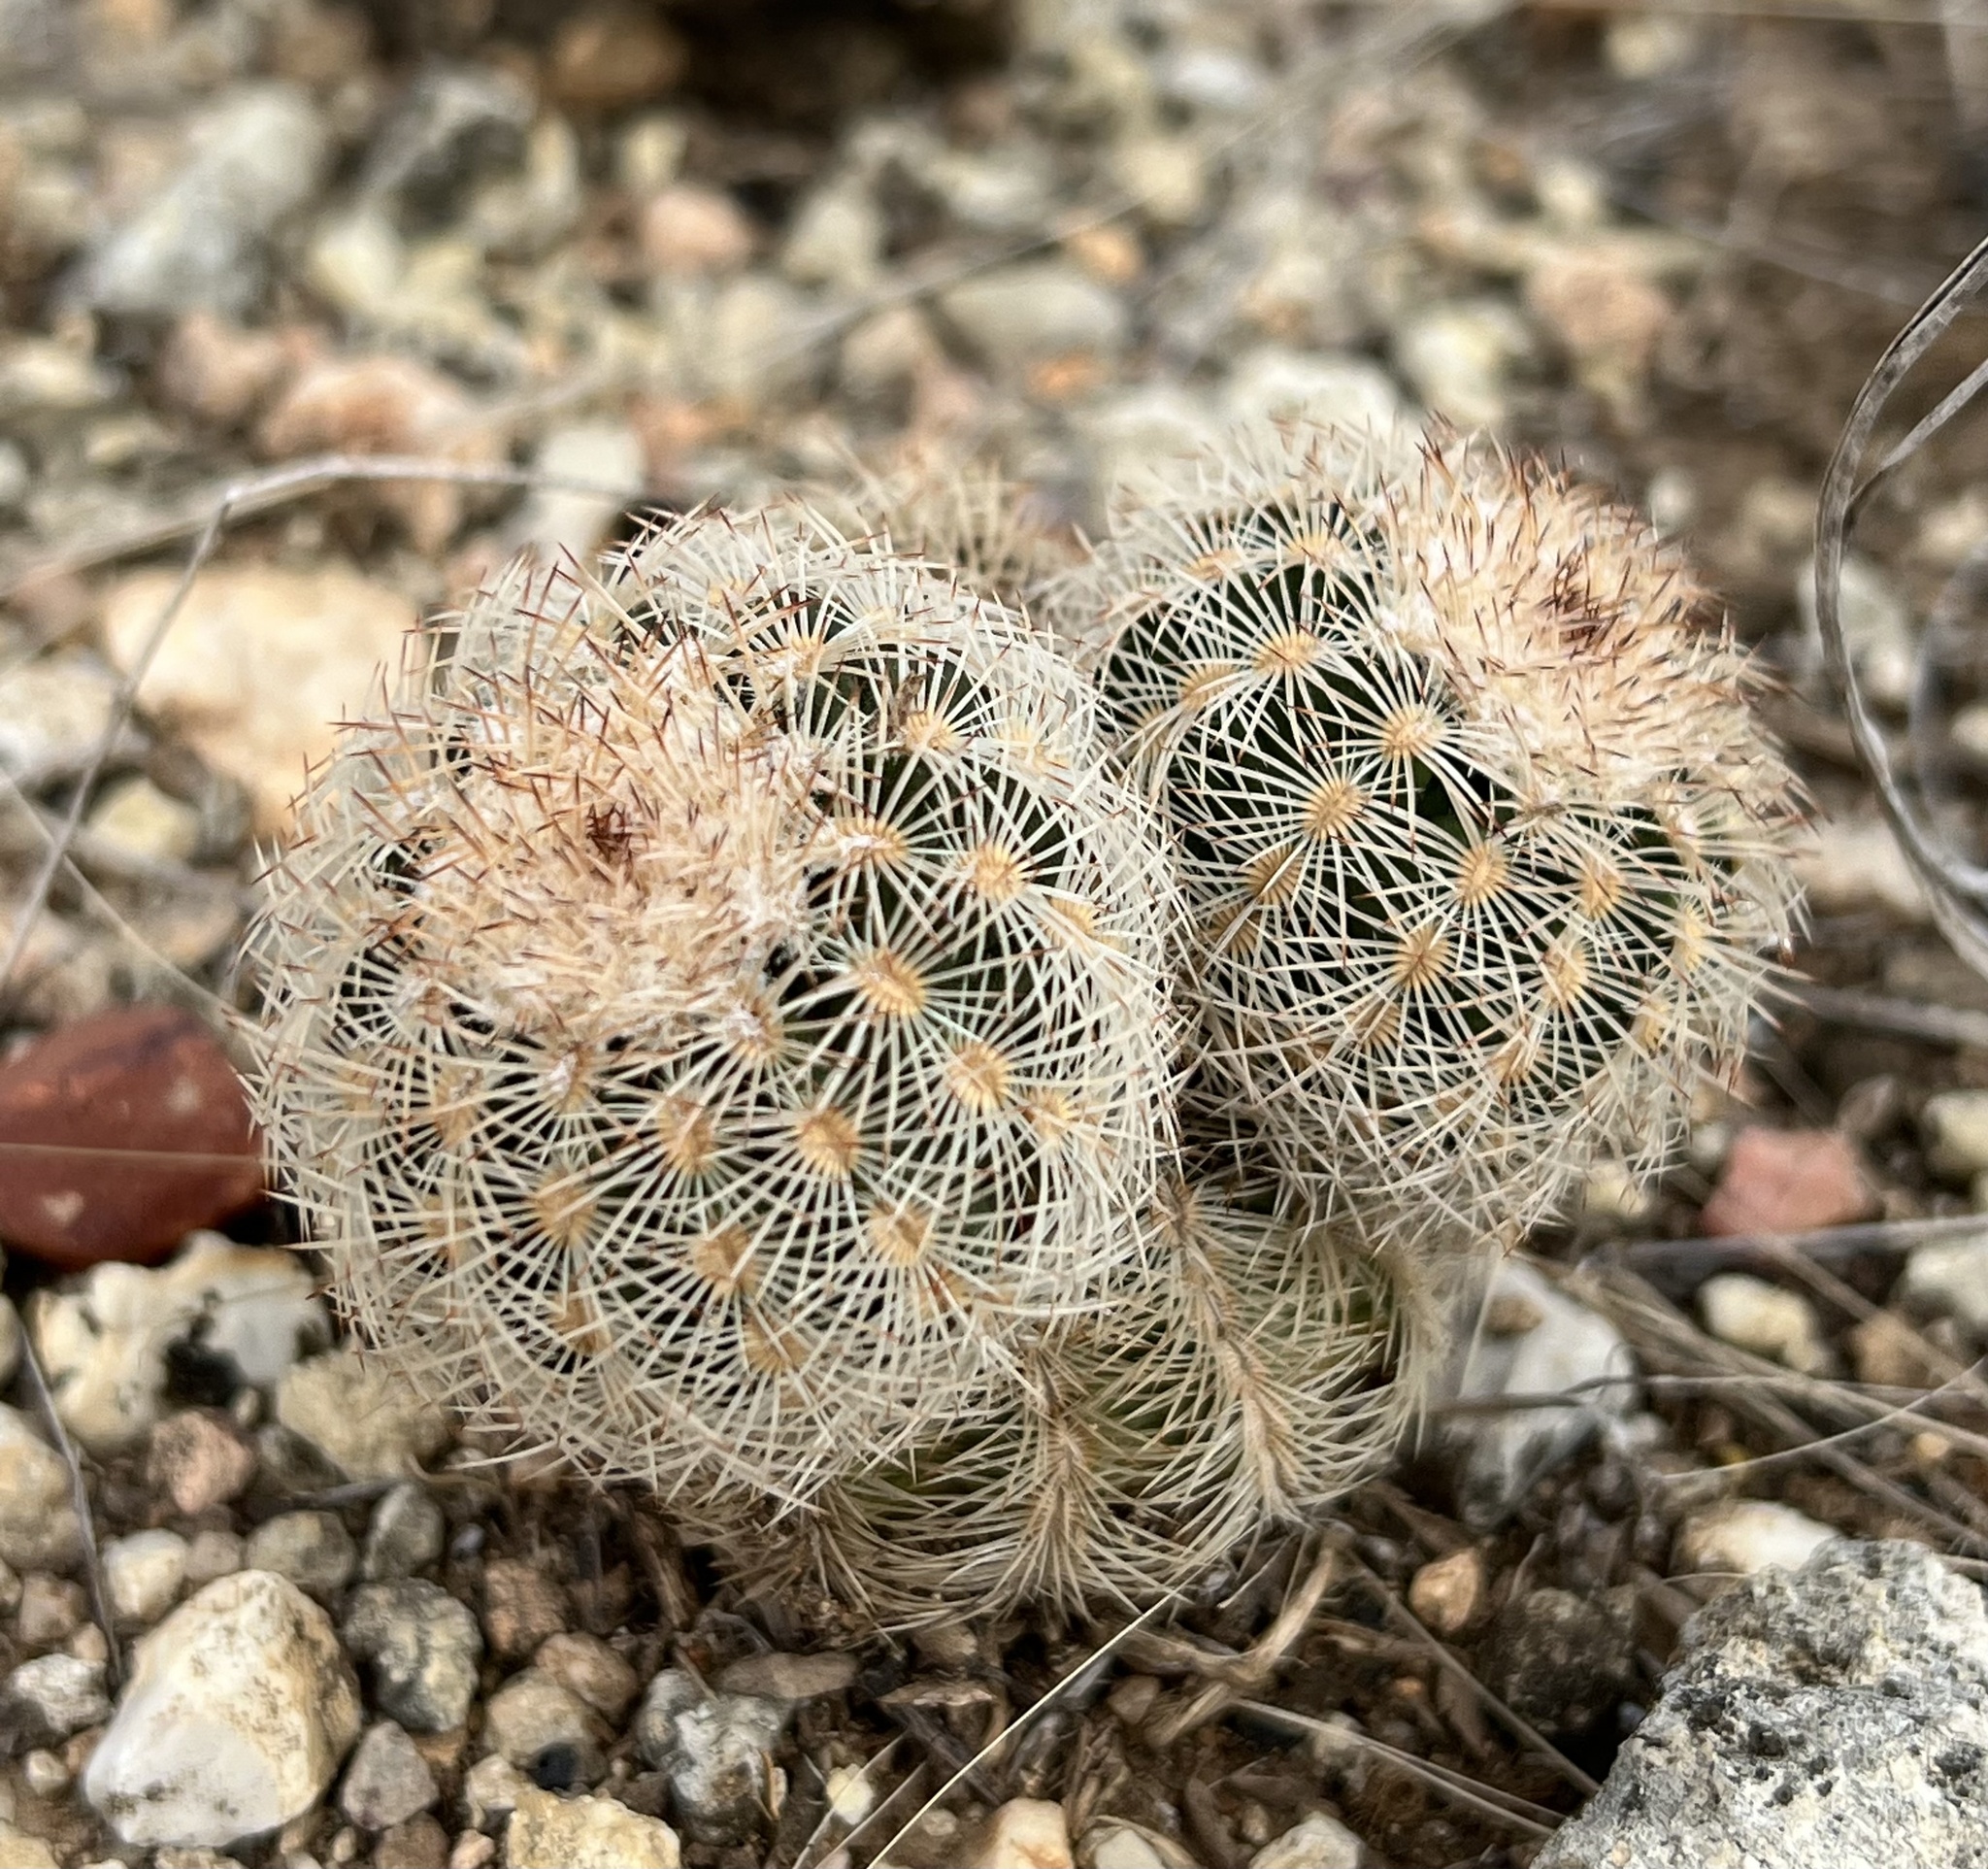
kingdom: Plantae
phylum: Tracheophyta
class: Magnoliopsida
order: Caryophyllales
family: Cactaceae
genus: Echinocereus
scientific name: Echinocereus reichenbachii
